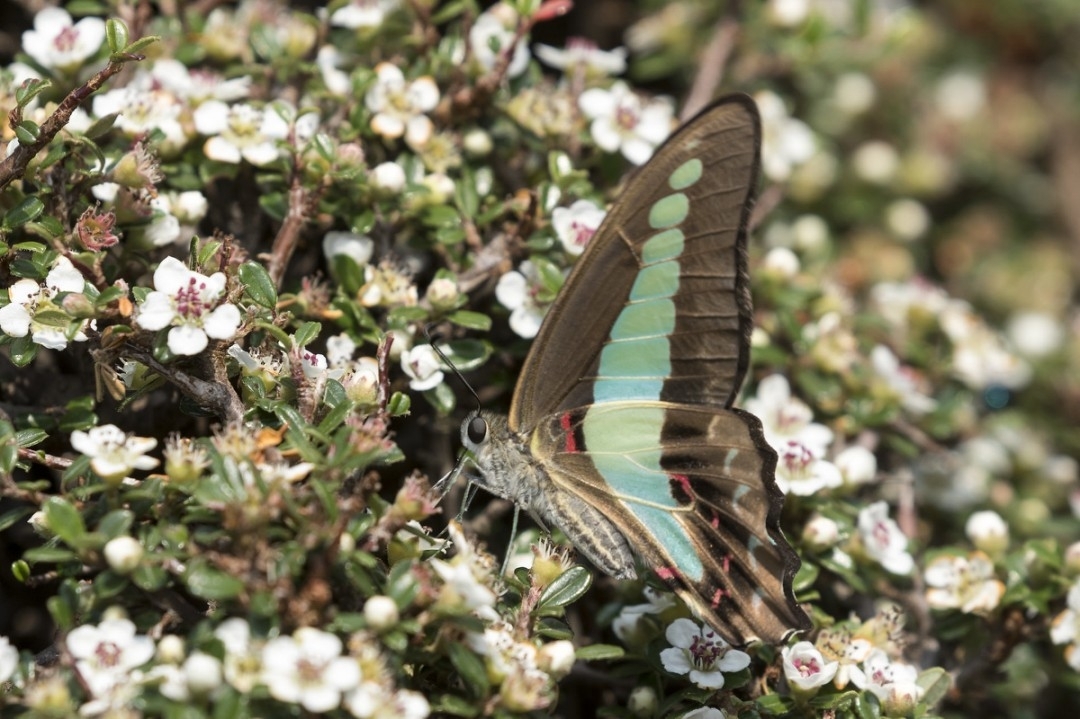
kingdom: Fungi
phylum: Ascomycota
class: Sordariomycetes
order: Microascales
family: Microascaceae
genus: Graphium
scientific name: Graphium sarpedon
